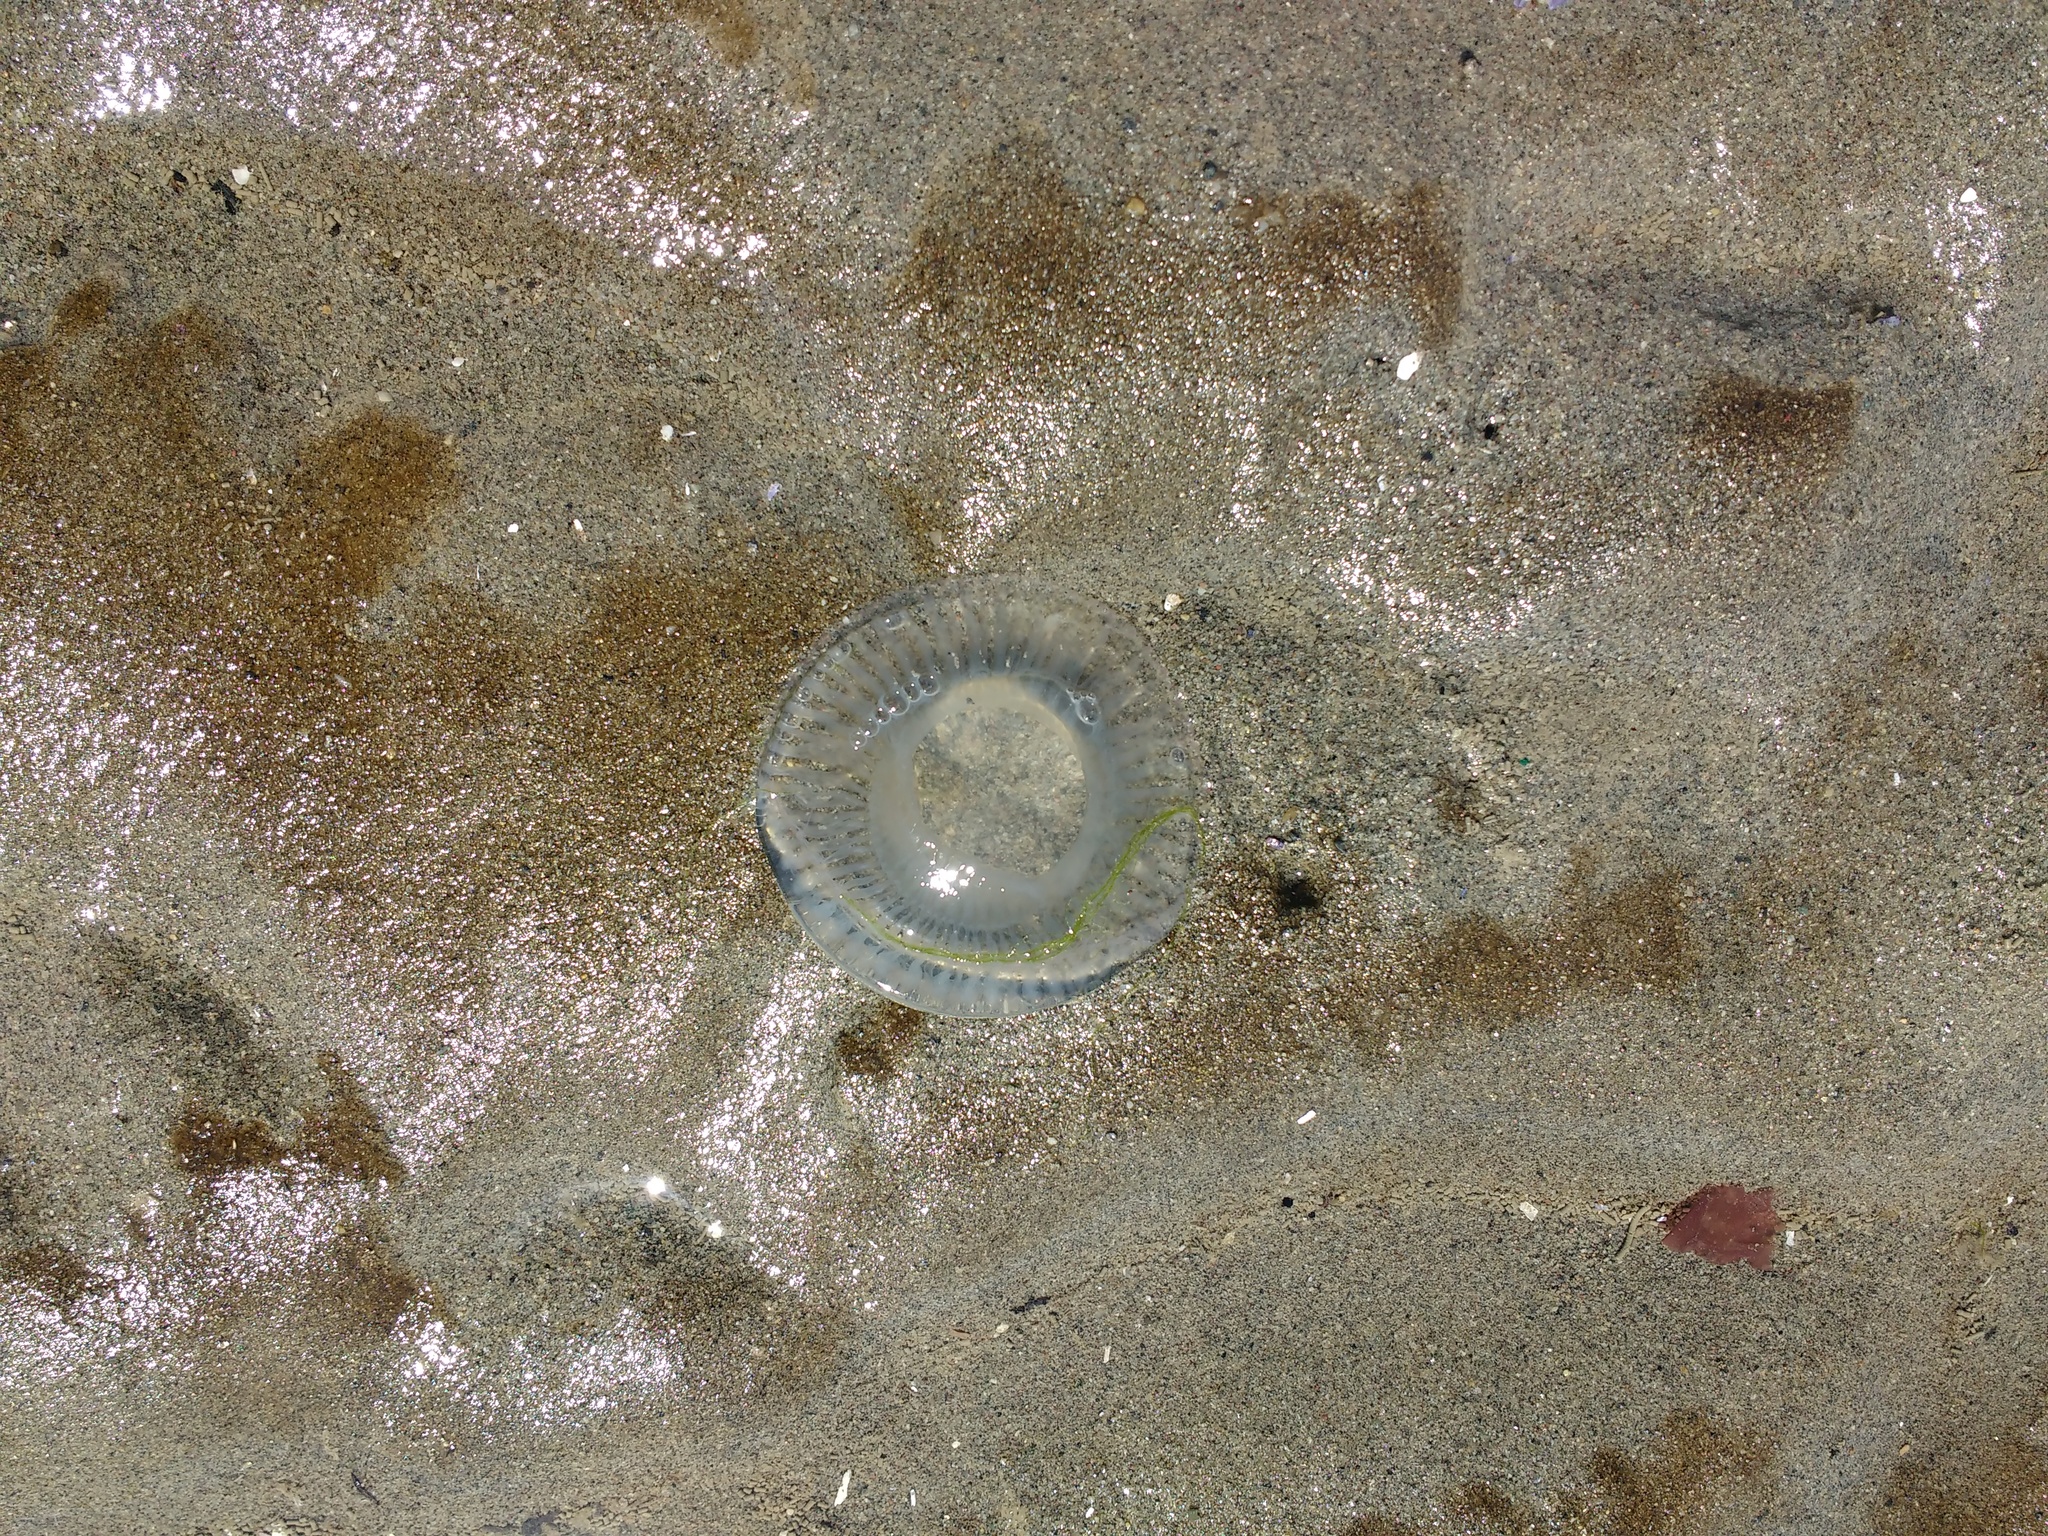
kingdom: Animalia
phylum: Cnidaria
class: Hydrozoa
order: Leptothecata
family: Aequoreidae
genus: Aequorea
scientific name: Aequorea victoria
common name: Water jellyfish
